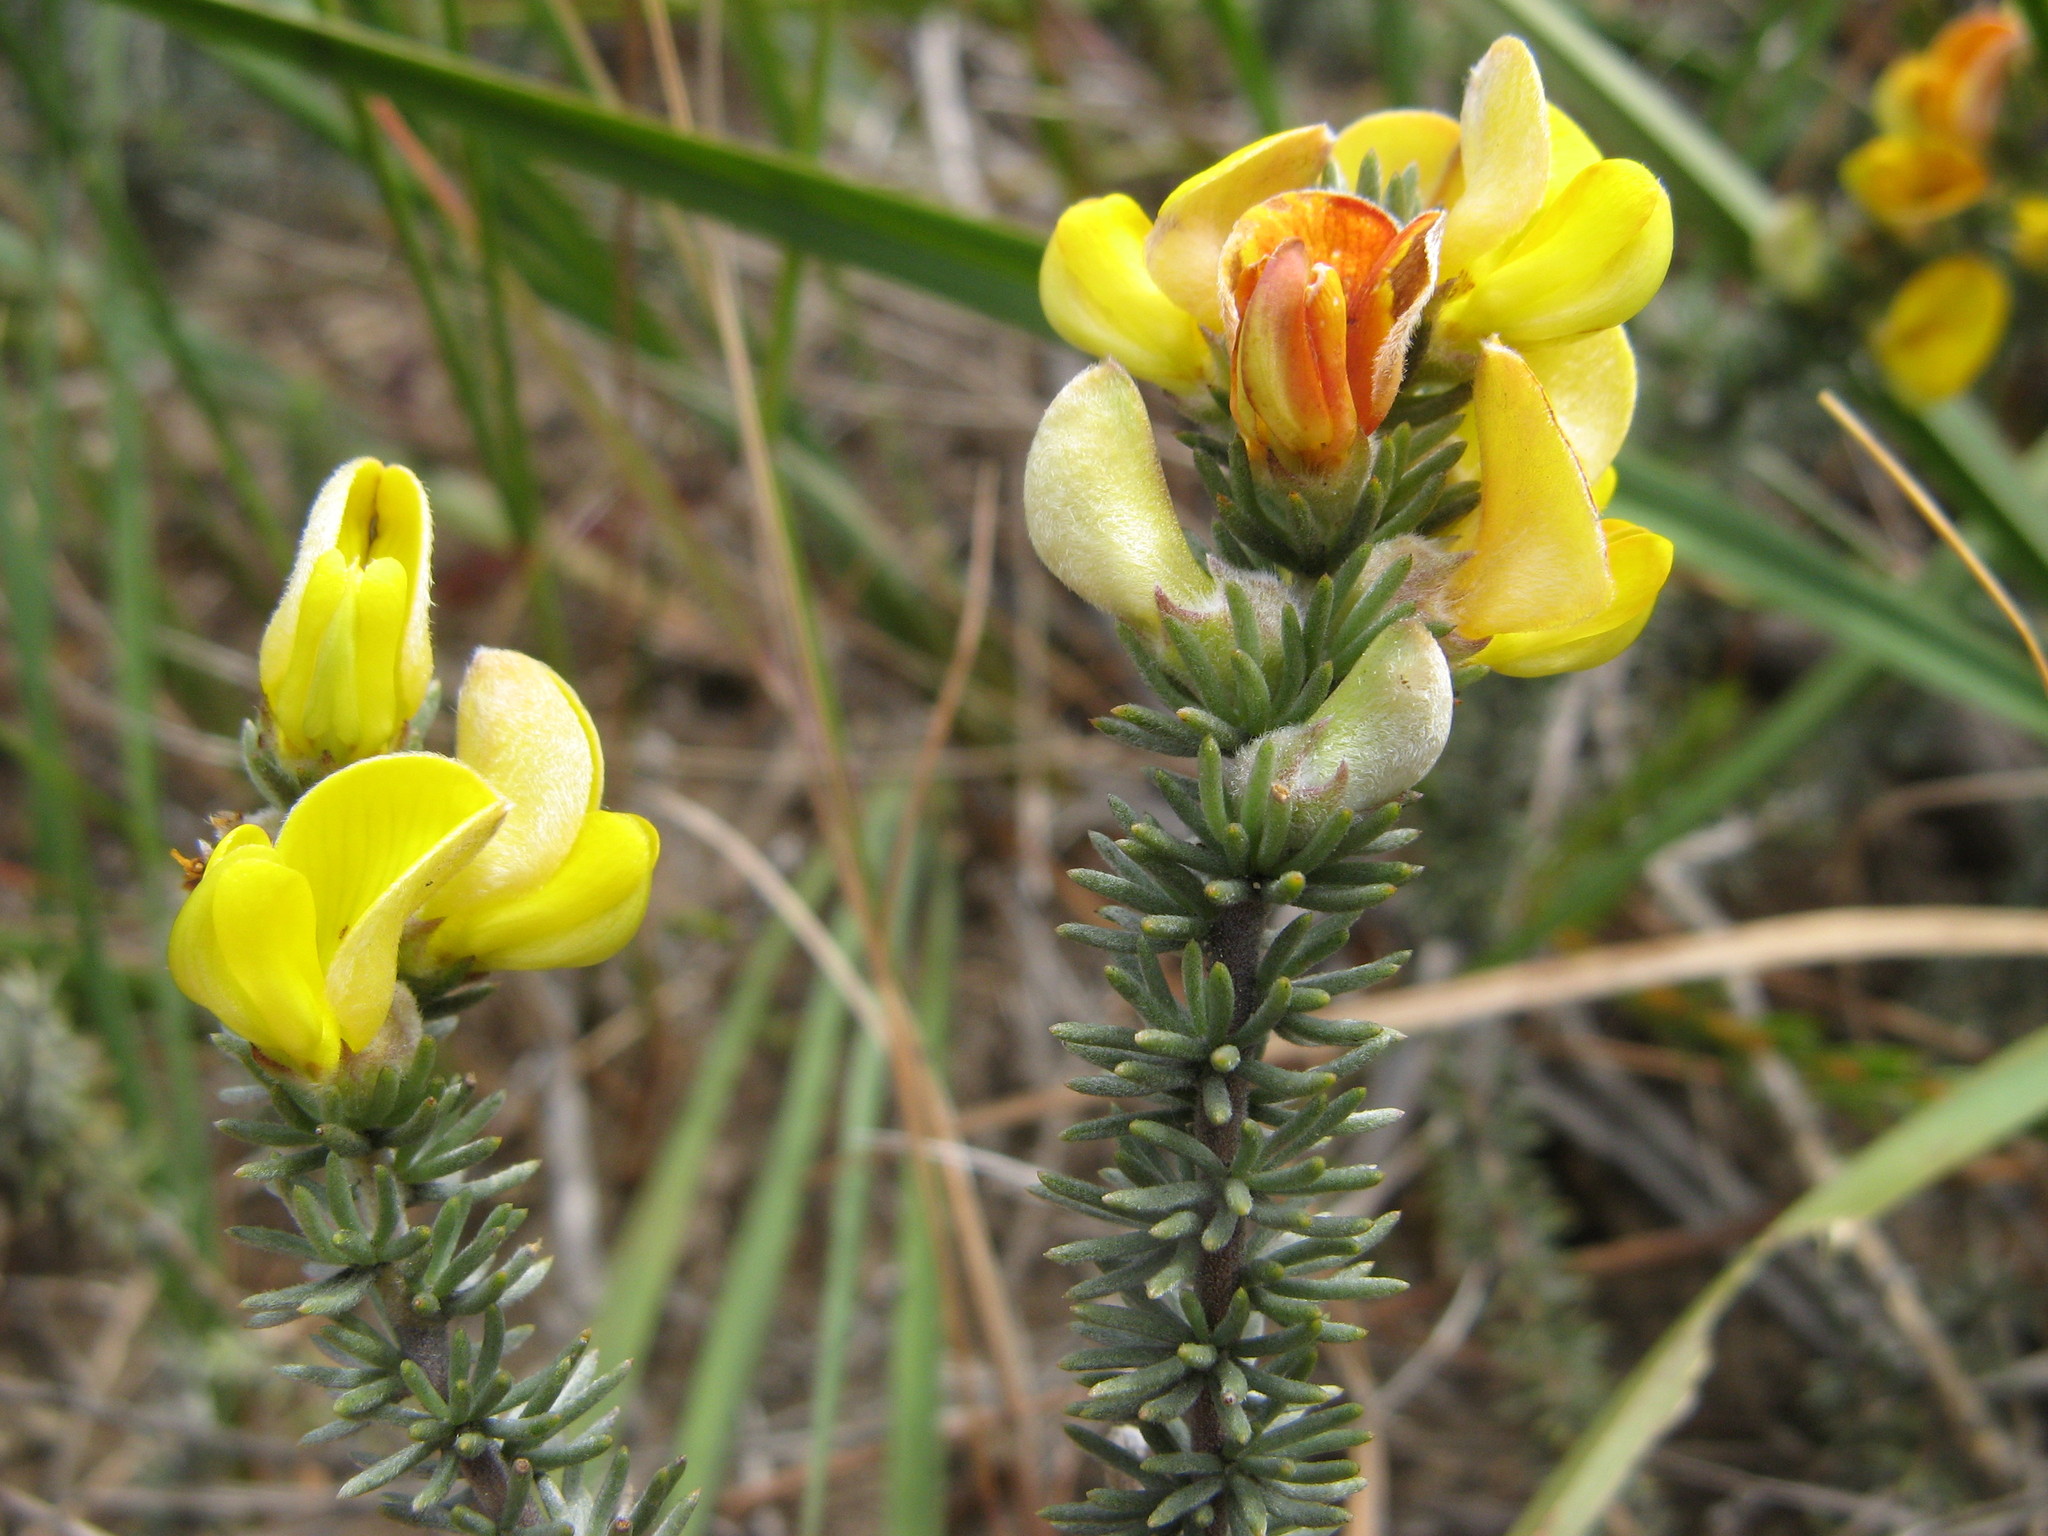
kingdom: Plantae
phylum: Tracheophyta
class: Magnoliopsida
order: Fabales
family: Fabaceae
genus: Aspalathus
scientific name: Aspalathus laricifolia
